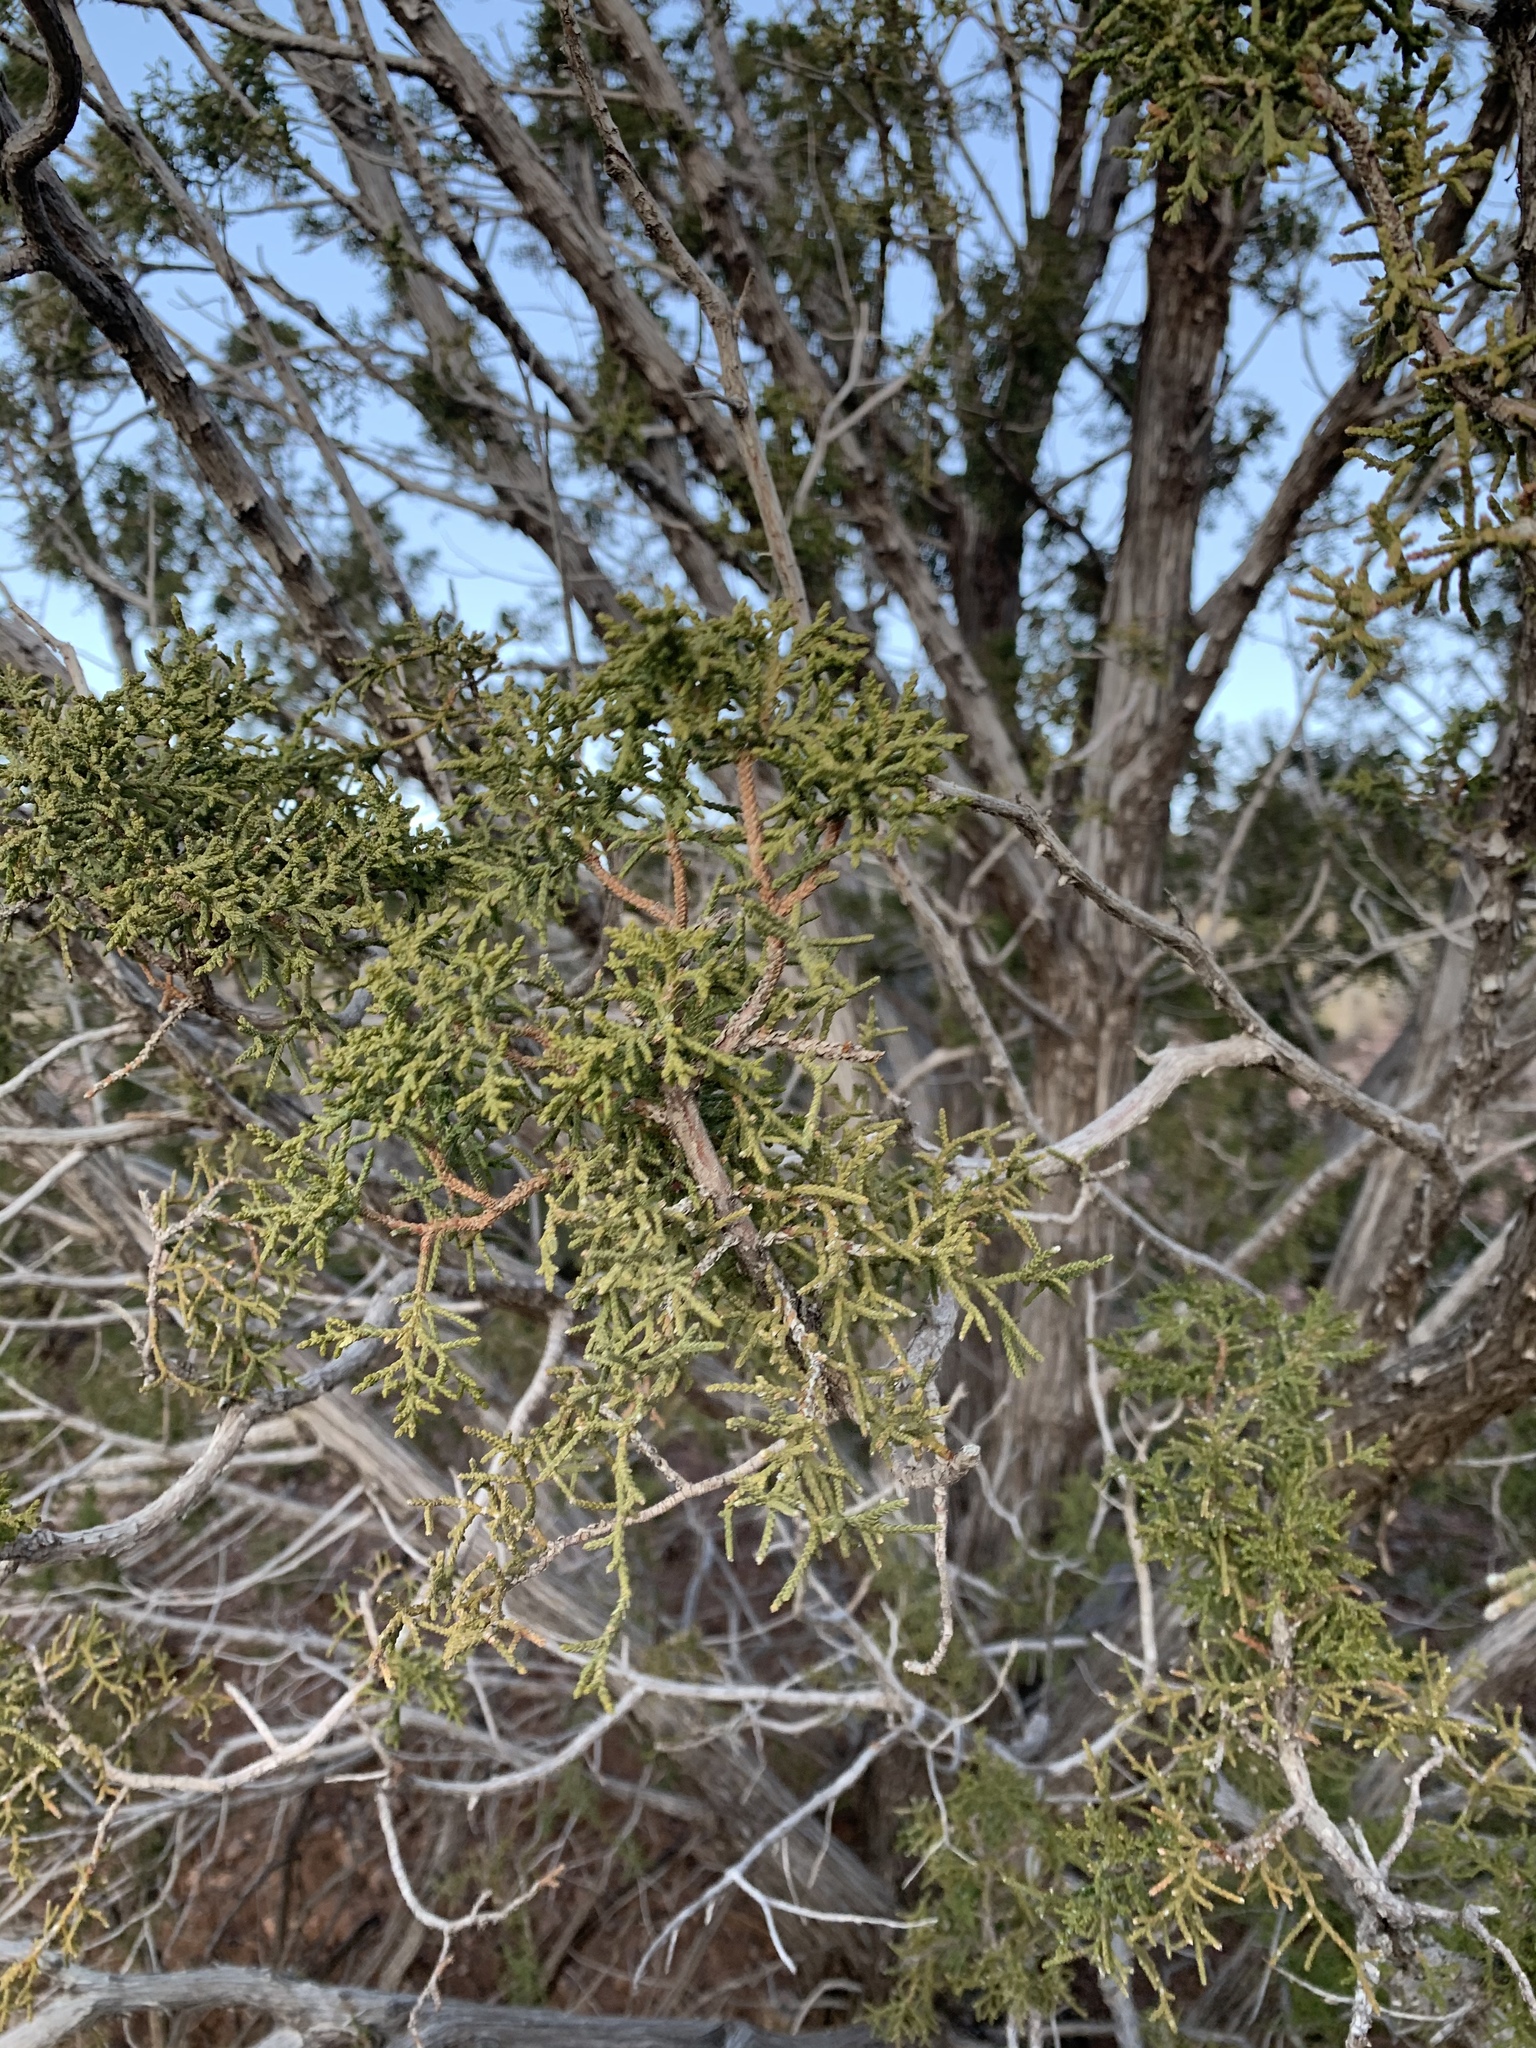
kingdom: Plantae
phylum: Tracheophyta
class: Pinopsida
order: Pinales
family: Cupressaceae
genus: Juniperus
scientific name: Juniperus monosperma
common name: One-seed juniper
